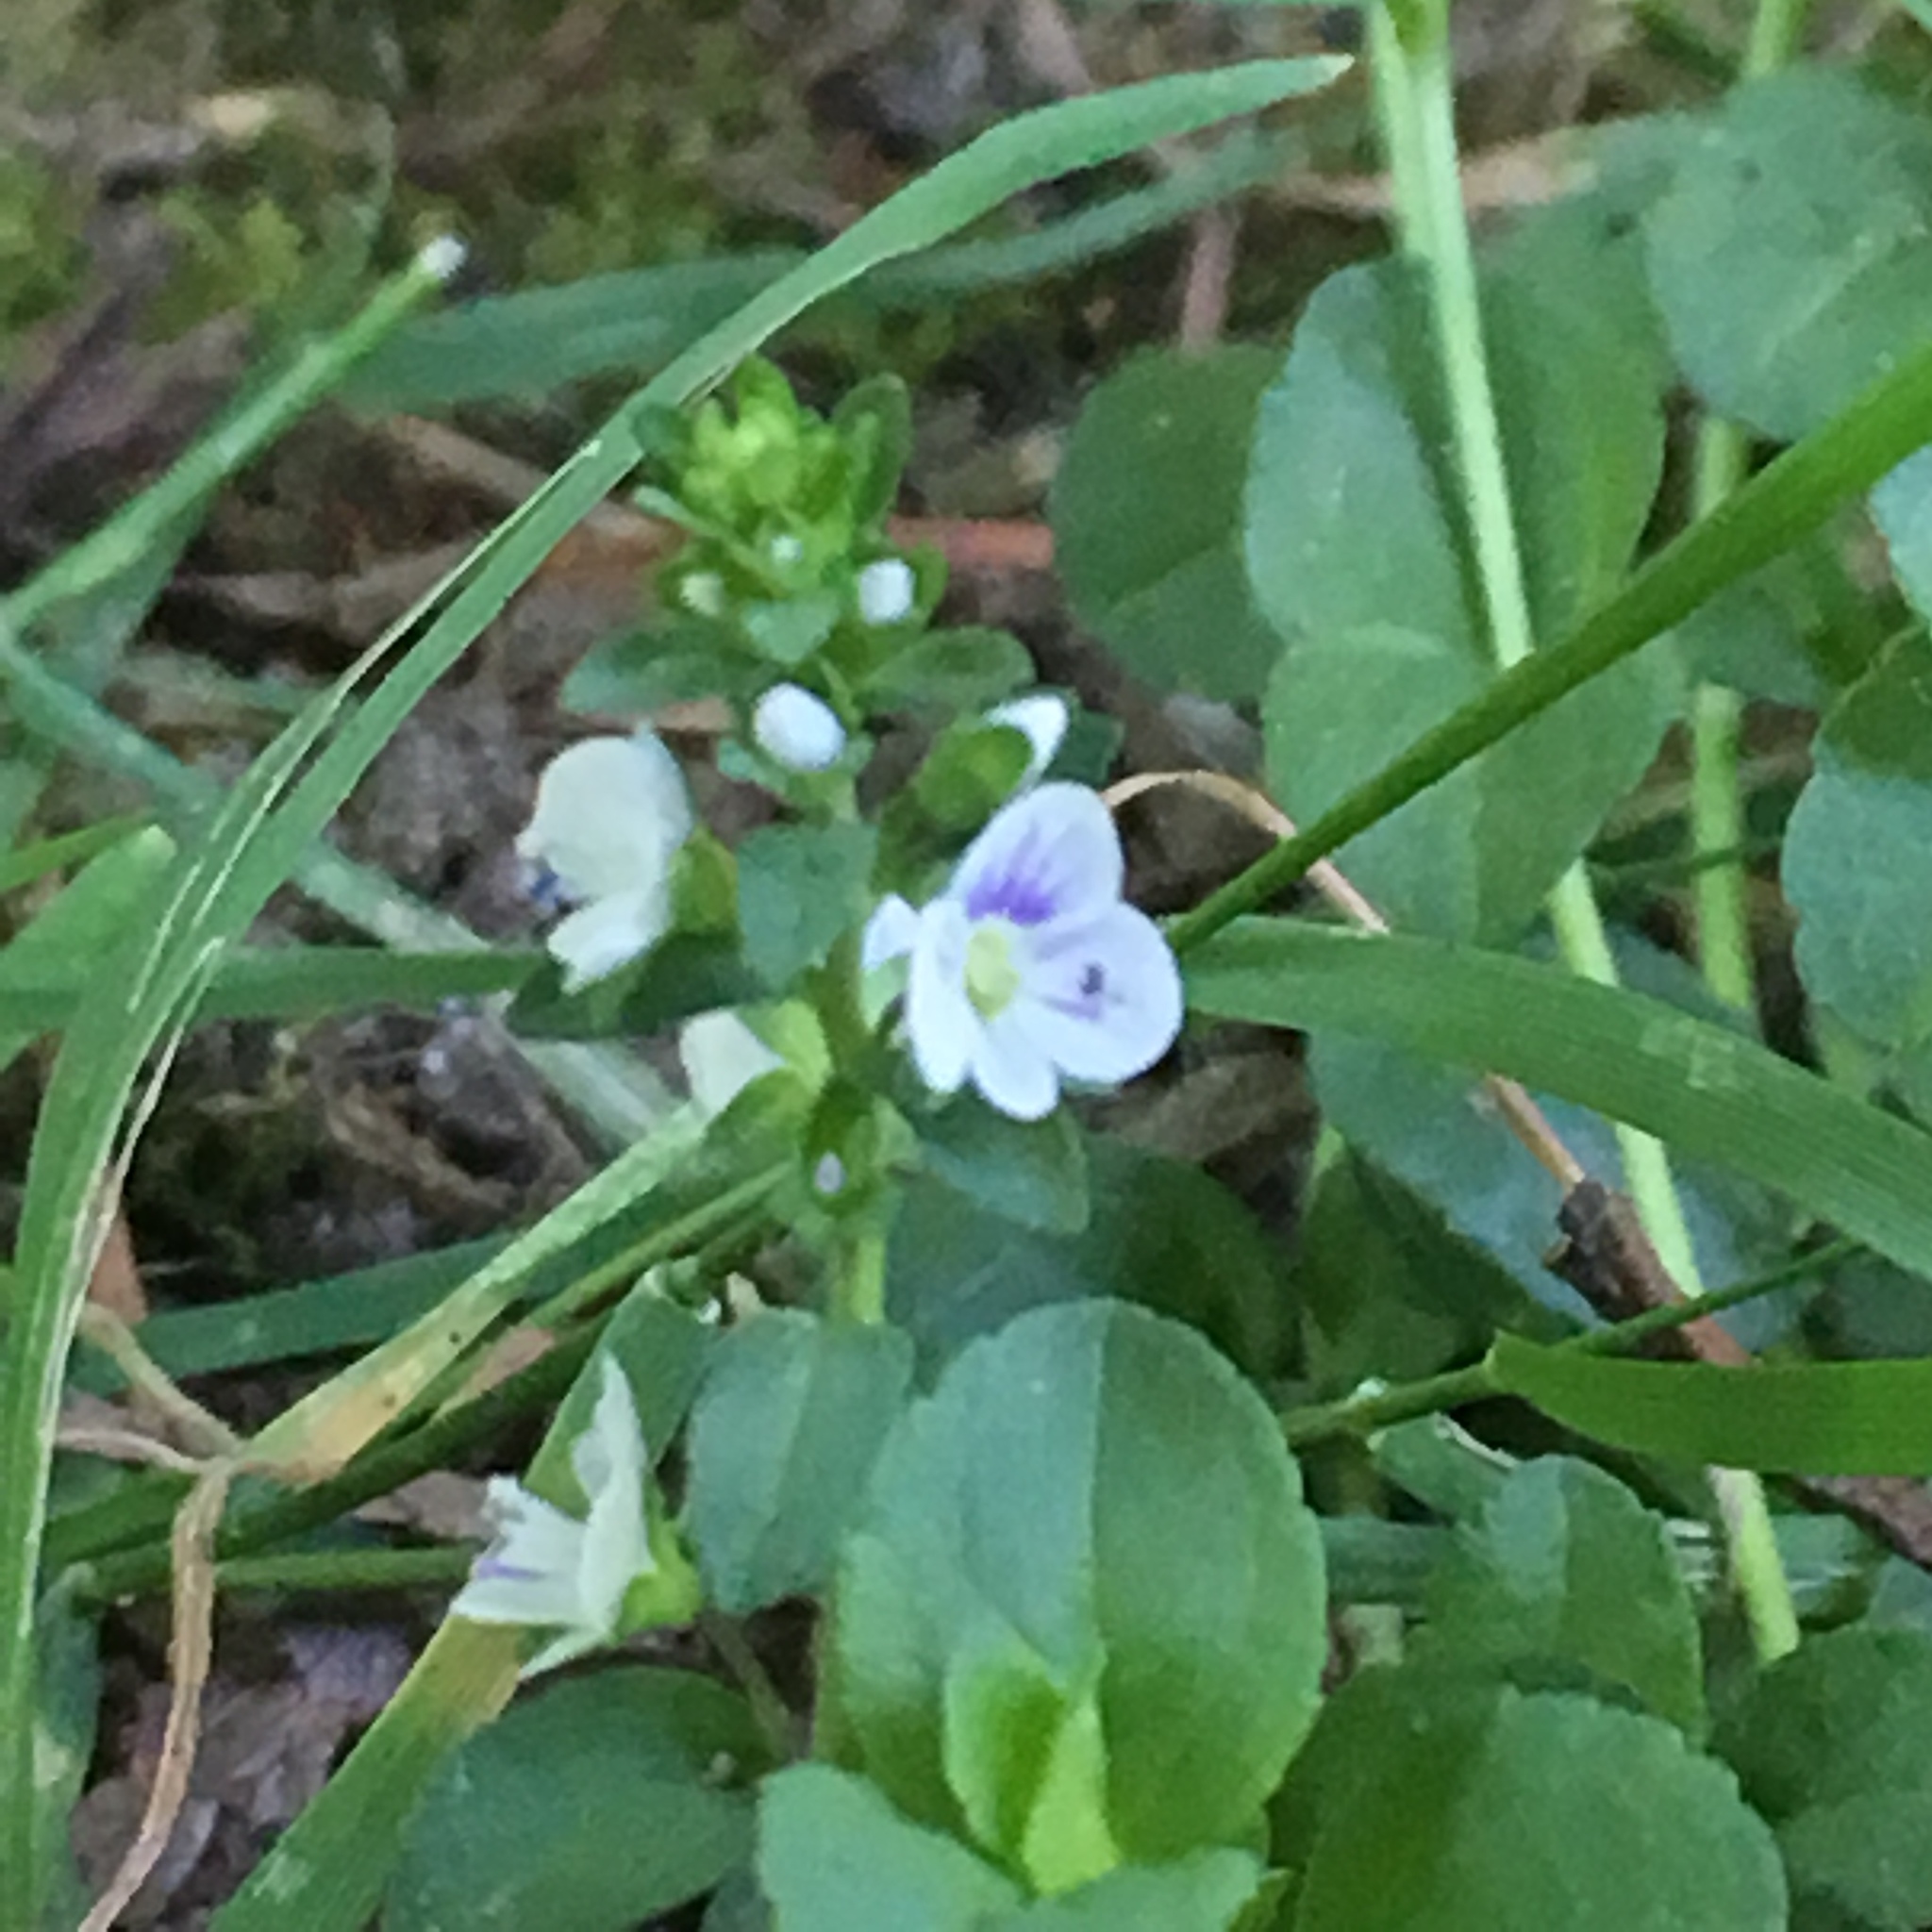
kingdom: Plantae
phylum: Tracheophyta
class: Magnoliopsida
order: Lamiales
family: Plantaginaceae
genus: Veronica
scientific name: Veronica serpyllifolia
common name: Thyme-leaved speedwell
